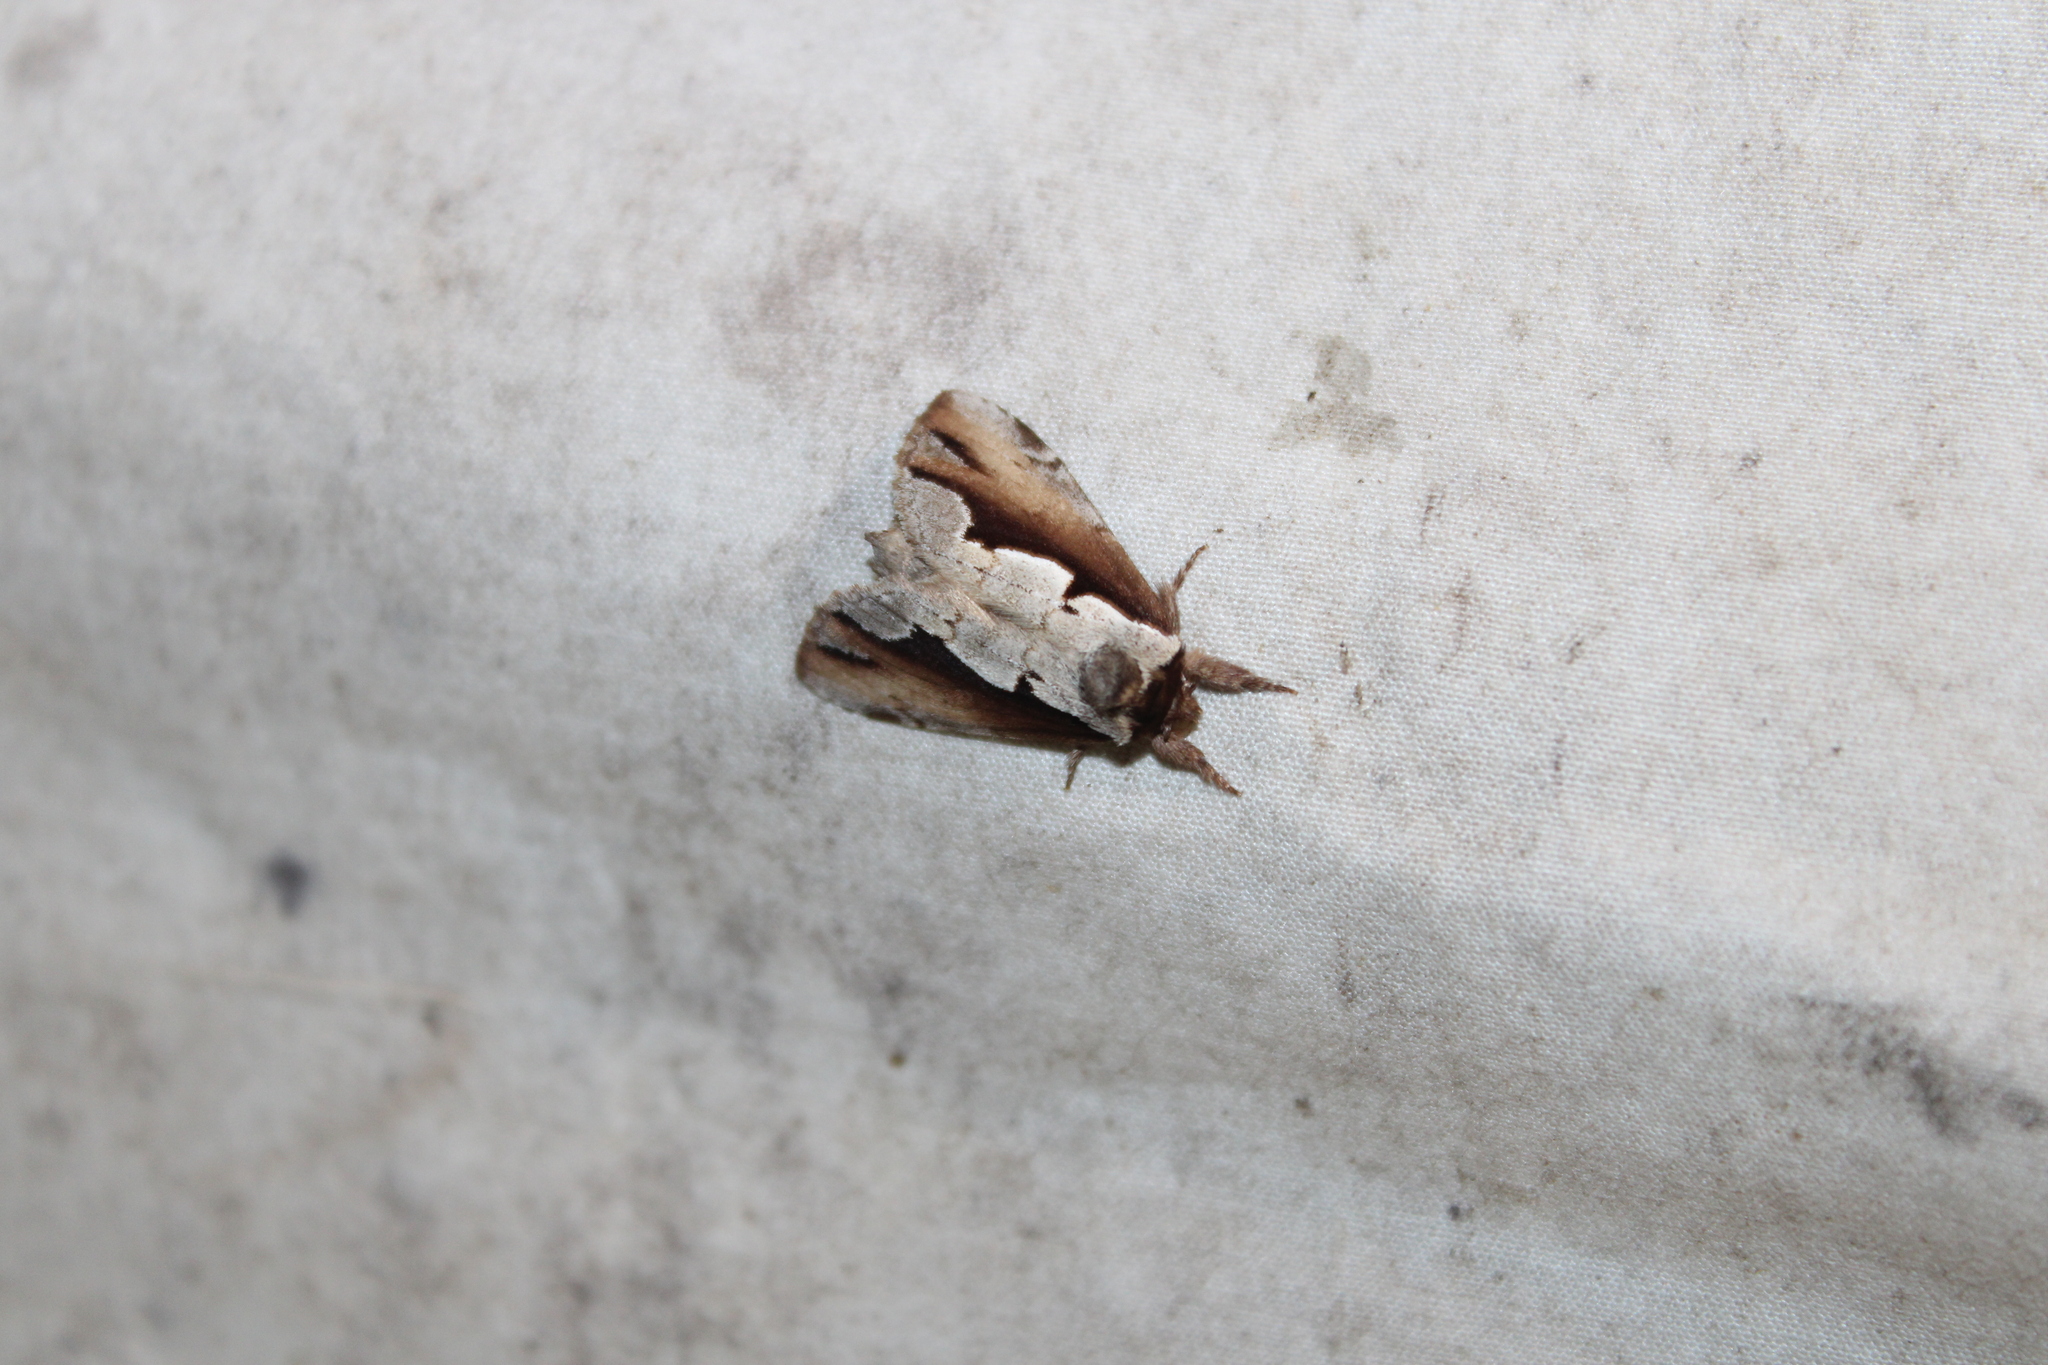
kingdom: Animalia
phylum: Arthropoda
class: Insecta
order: Lepidoptera
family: Notodontidae
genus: Nerice
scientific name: Nerice bidentata
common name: Double-toothed prominent
